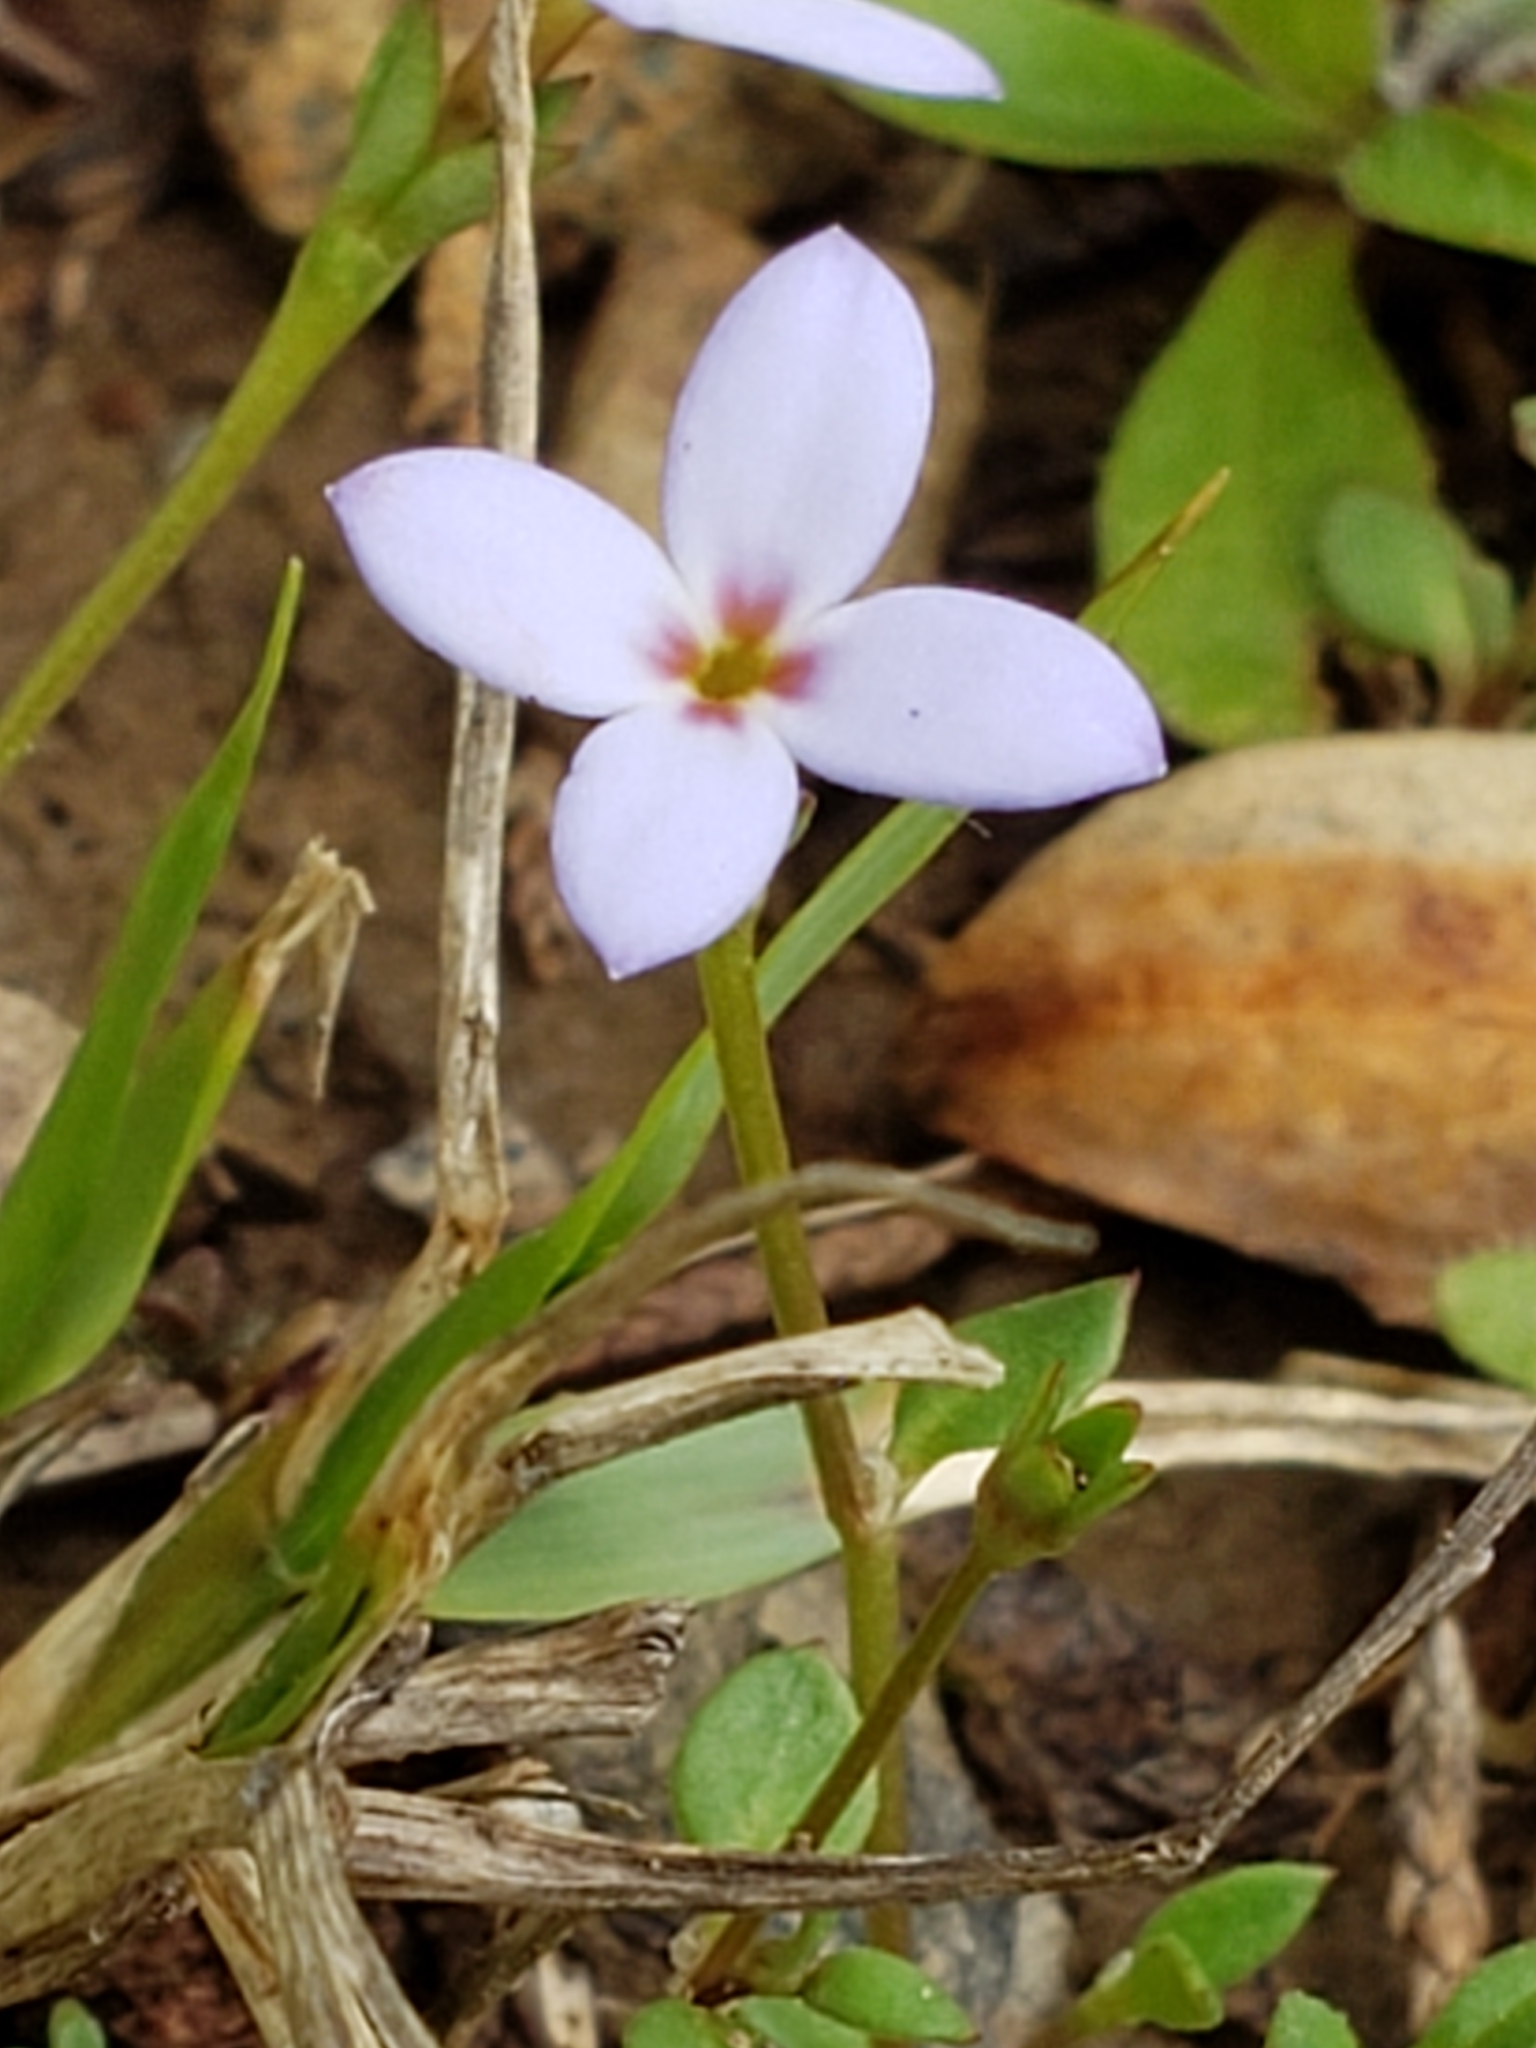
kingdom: Plantae
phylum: Tracheophyta
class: Magnoliopsida
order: Gentianales
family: Rubiaceae
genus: Houstonia
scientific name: Houstonia pusilla
